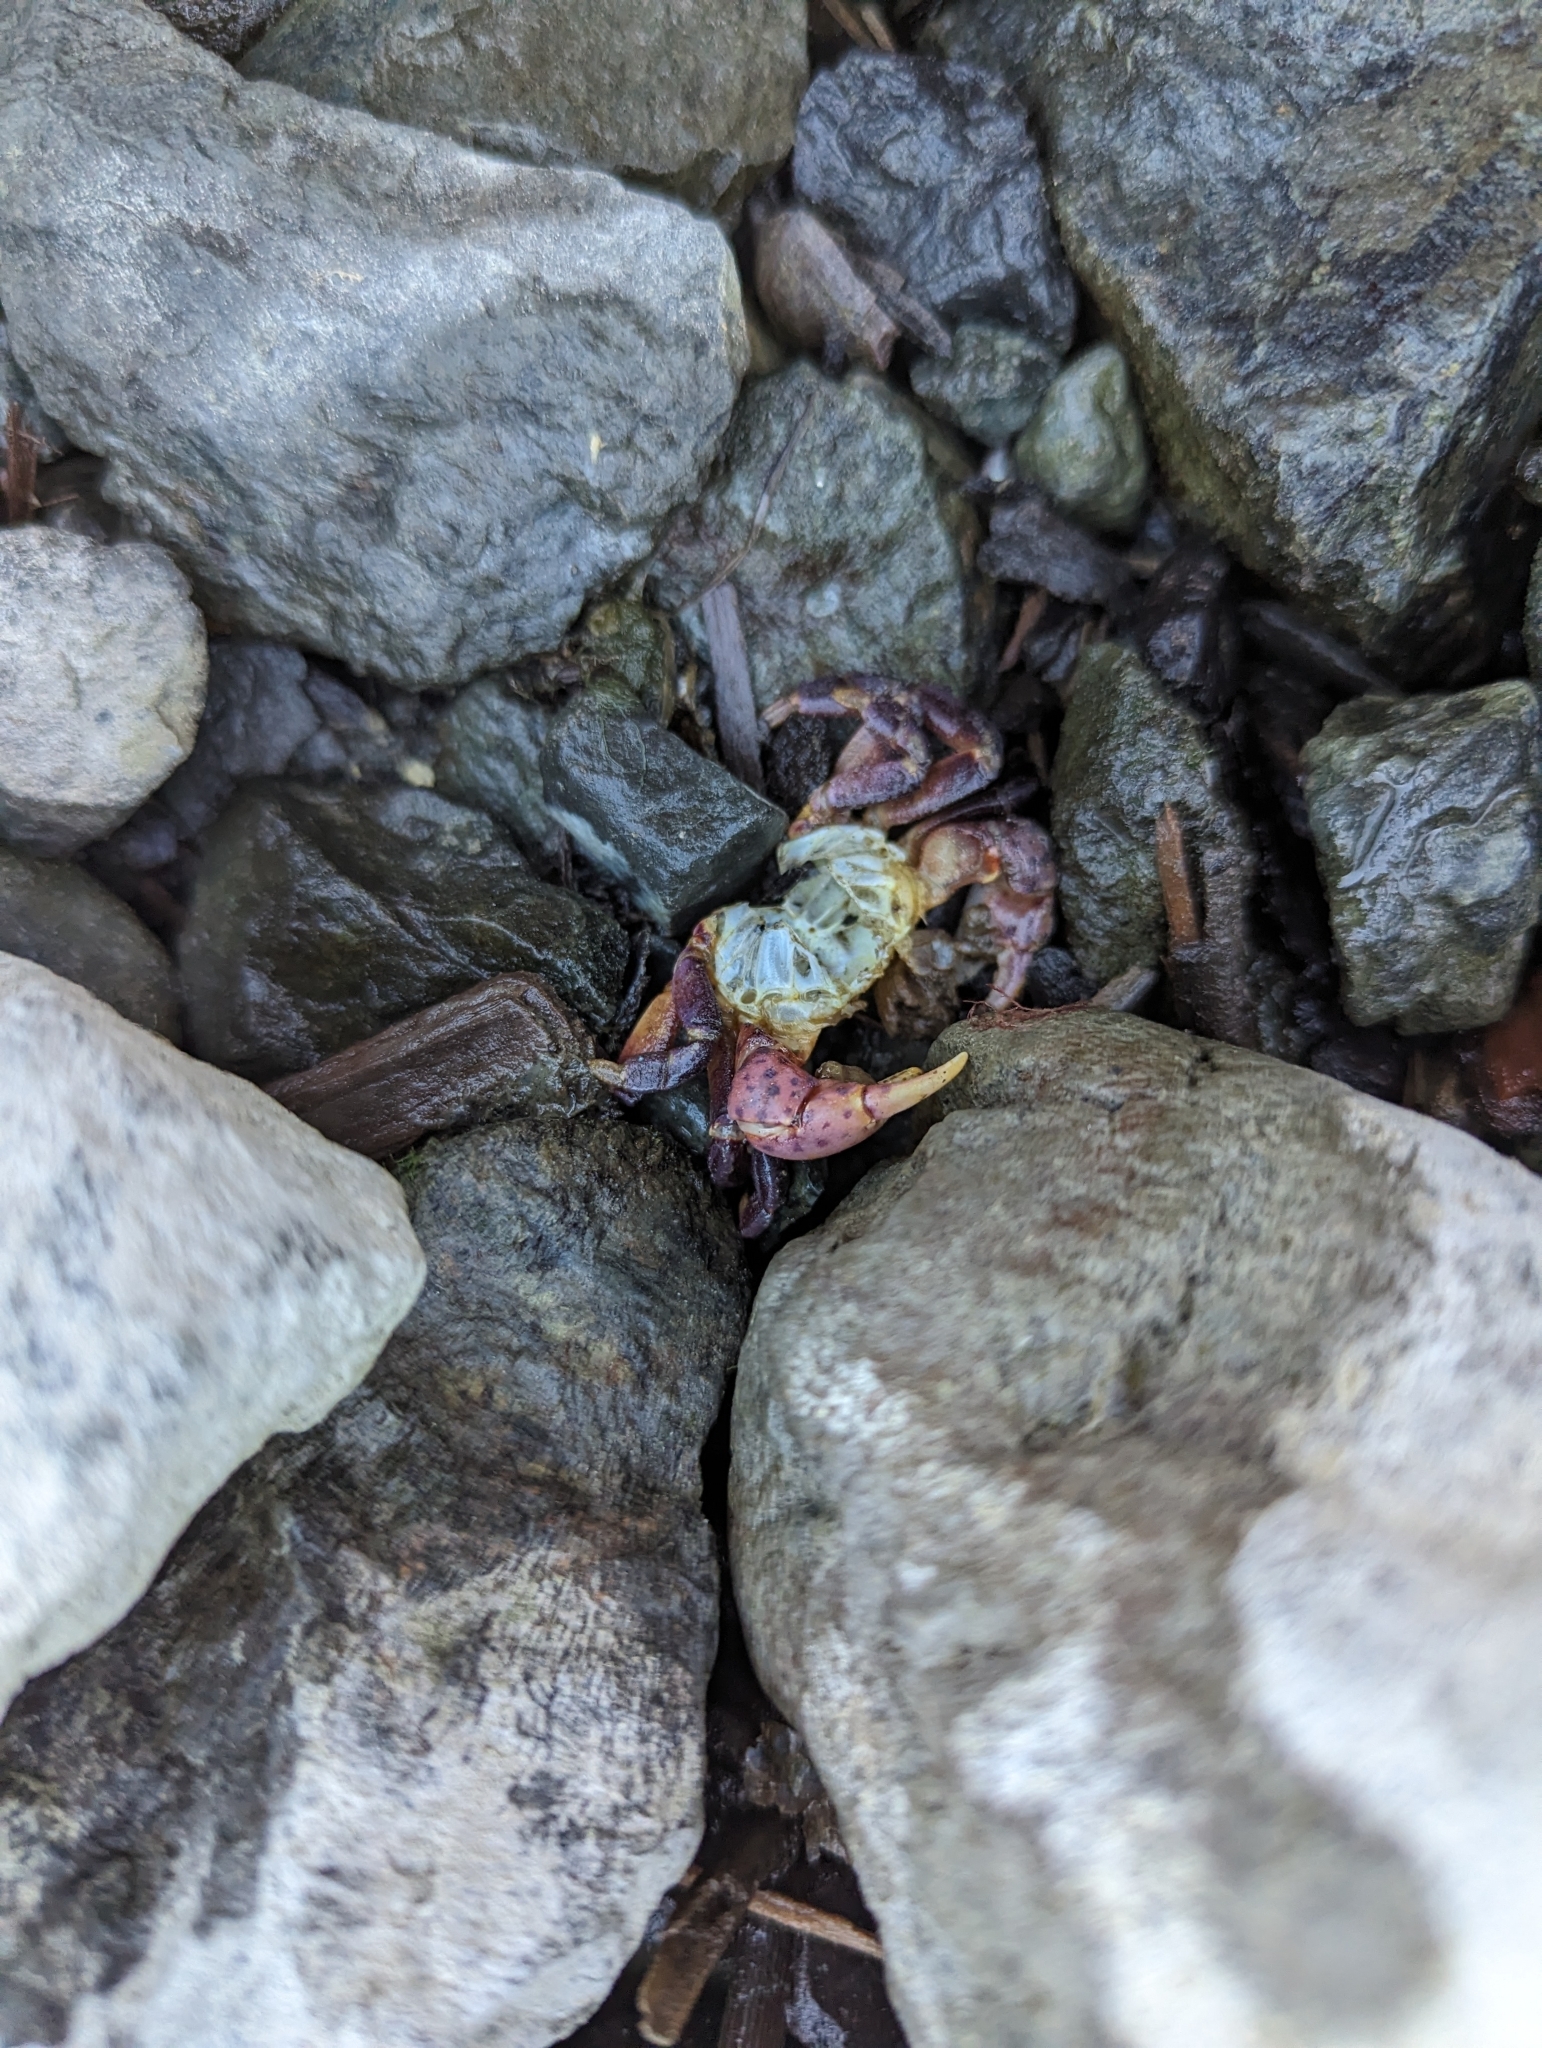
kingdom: Animalia
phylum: Arthropoda
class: Malacostraca
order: Decapoda
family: Varunidae
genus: Hemigrapsus
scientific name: Hemigrapsus nudus
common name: Purple shore crab
